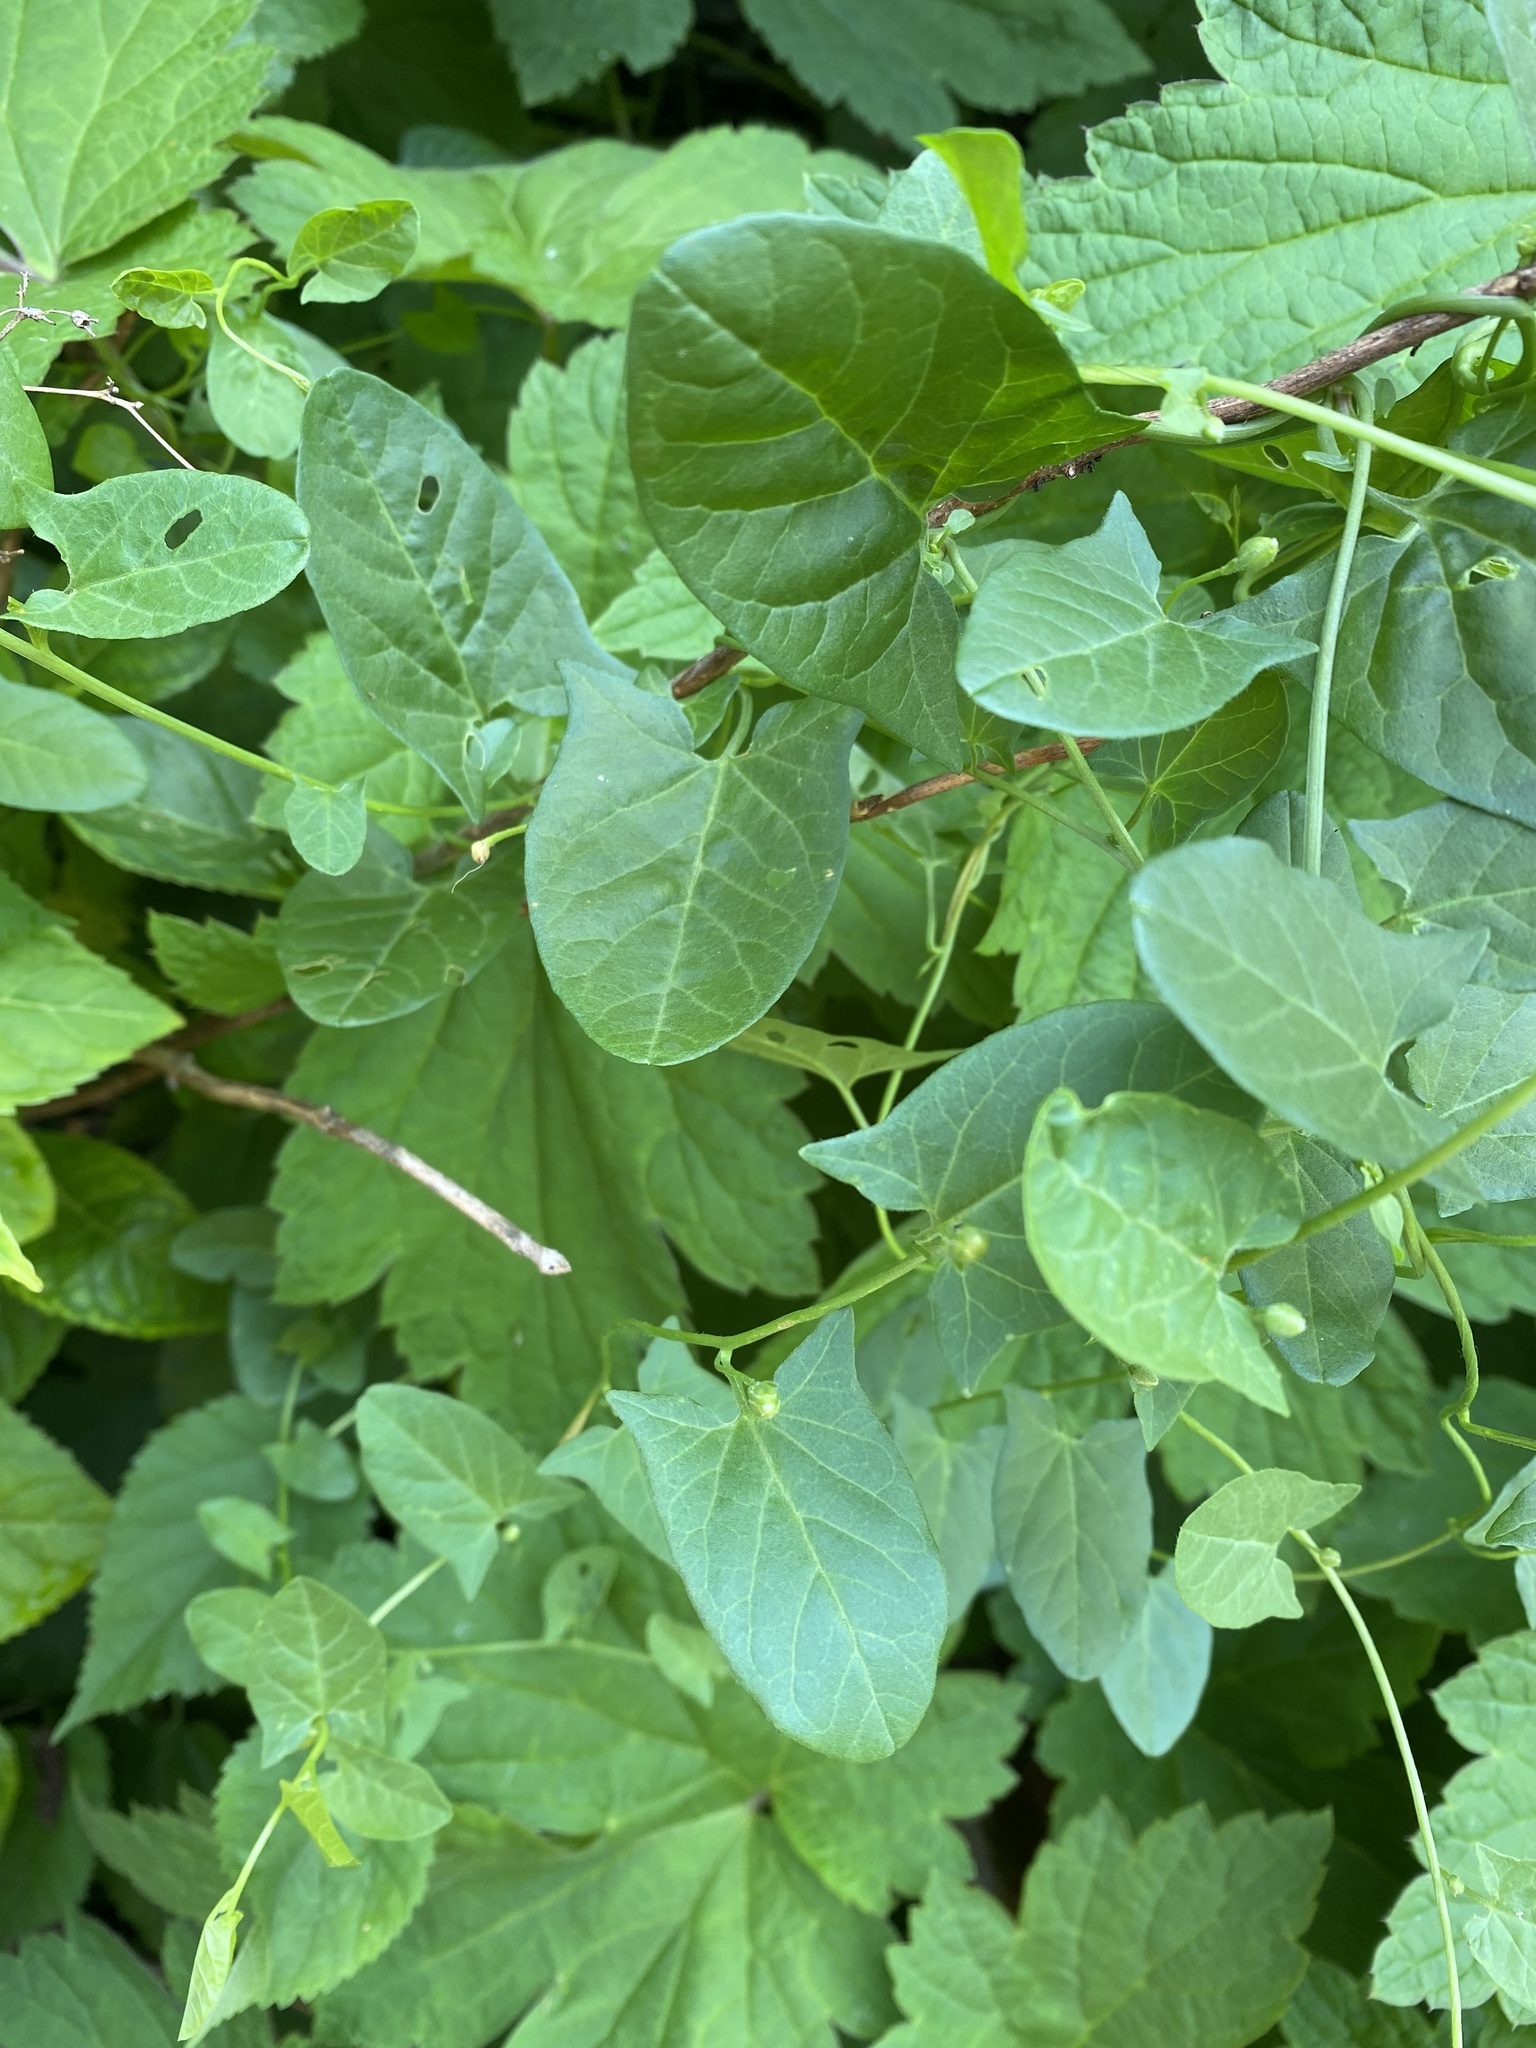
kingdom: Plantae
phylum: Tracheophyta
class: Magnoliopsida
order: Solanales
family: Convolvulaceae
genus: Convolvulus
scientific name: Convolvulus arvensis
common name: Field bindweed
